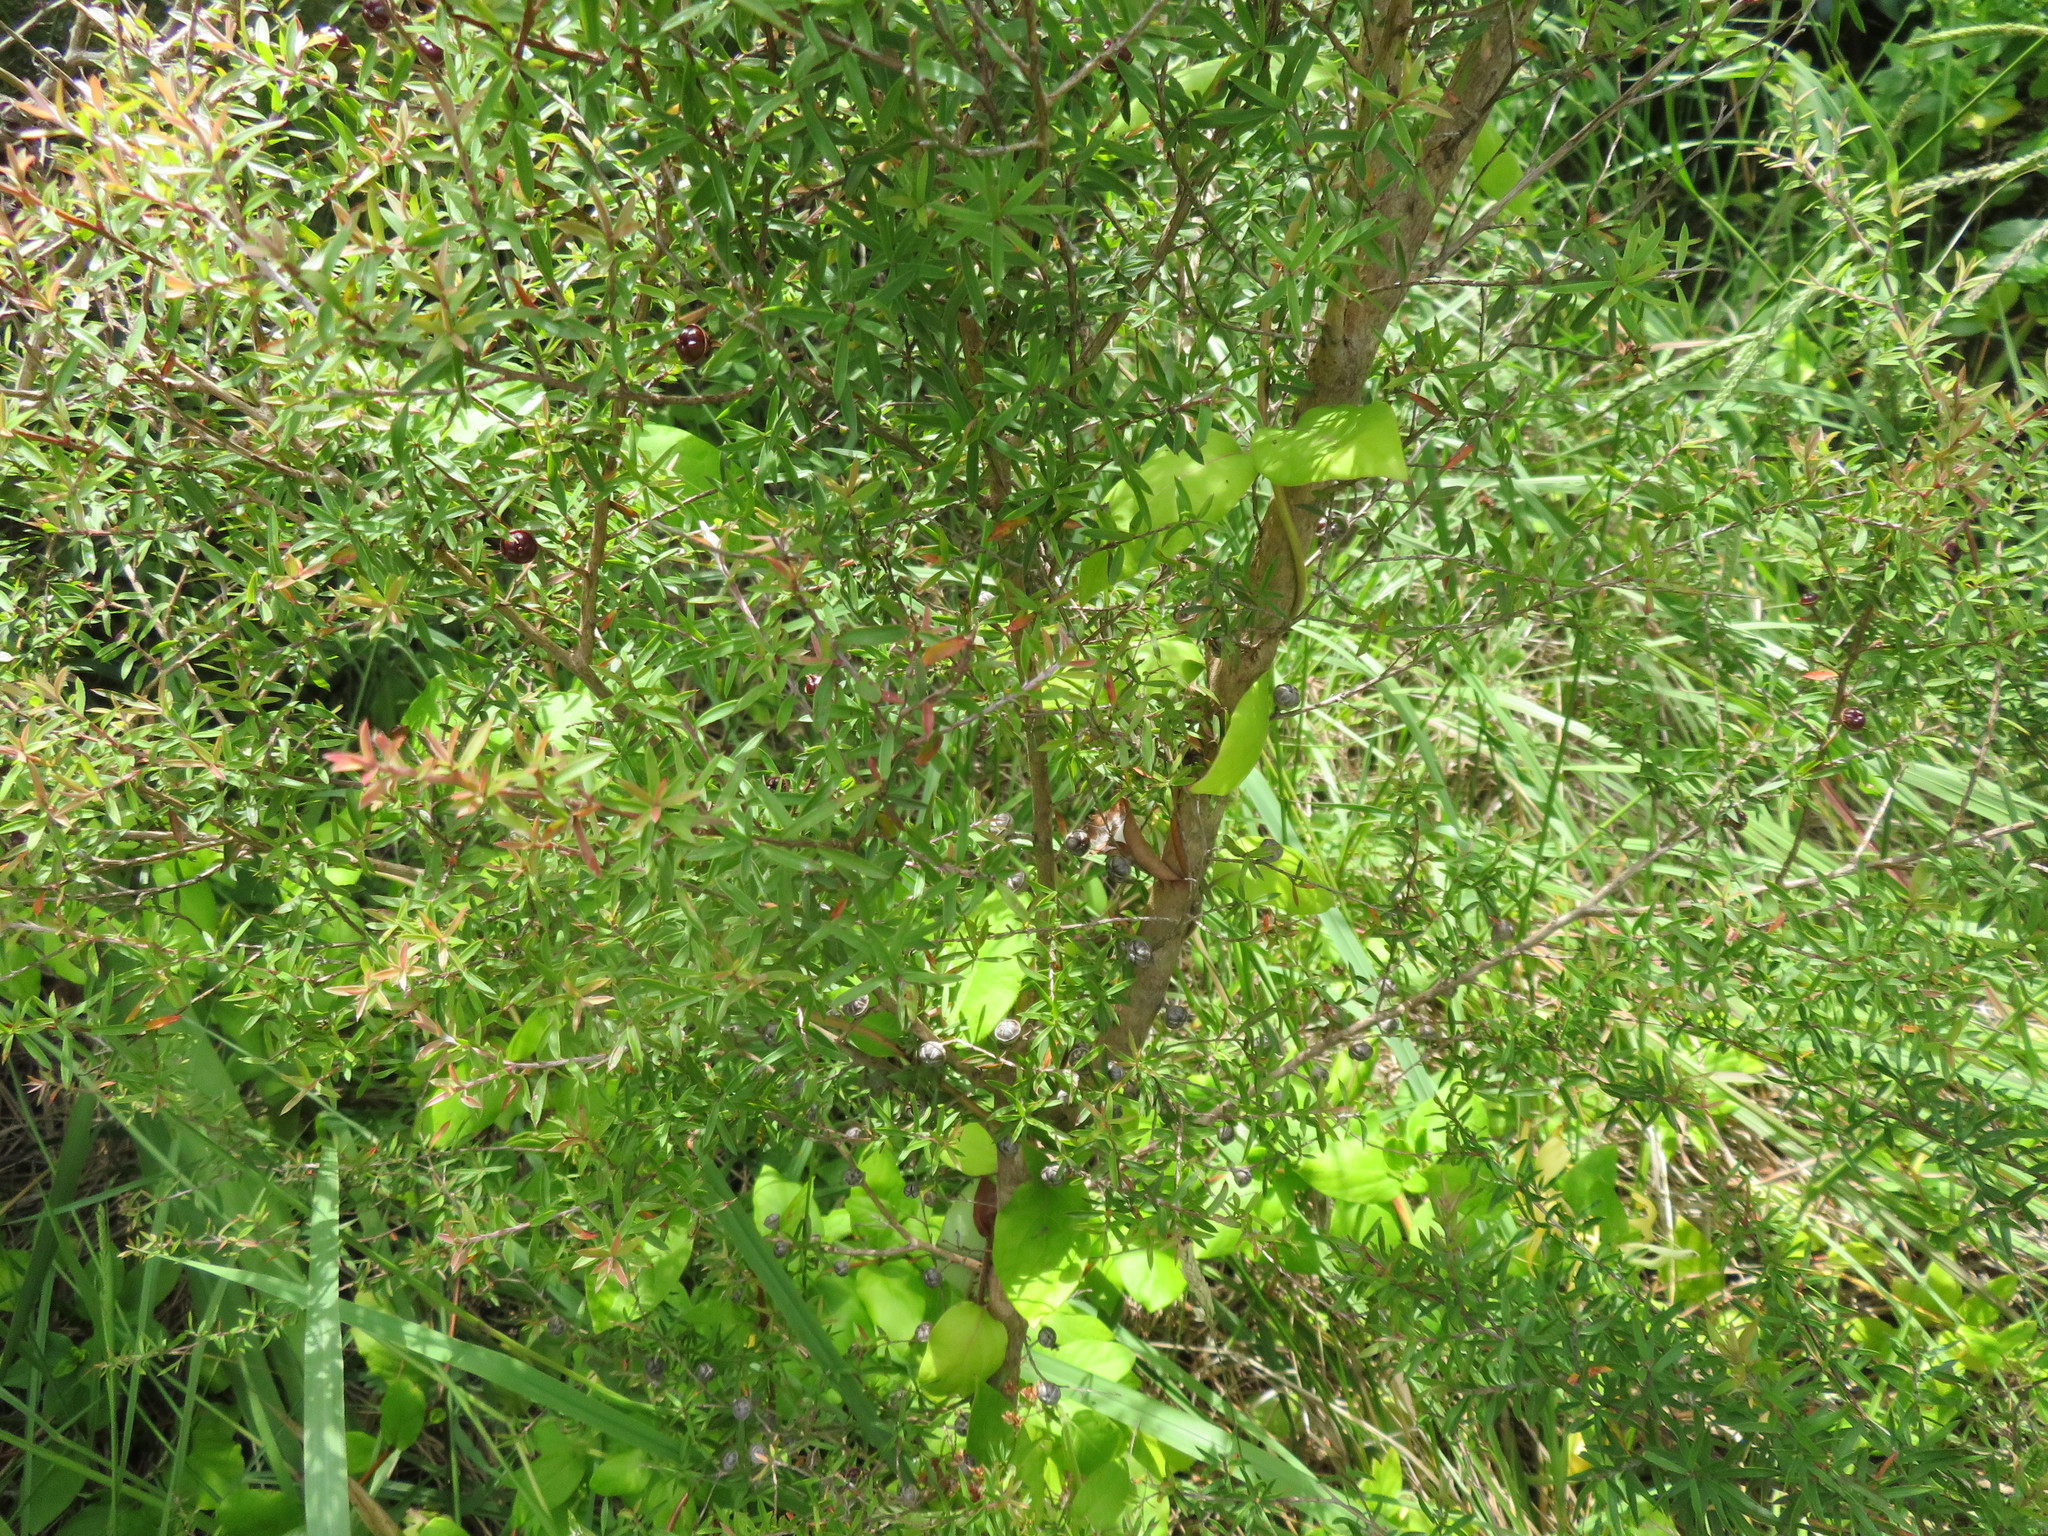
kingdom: Plantae
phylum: Tracheophyta
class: Magnoliopsida
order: Myrtales
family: Myrtaceae
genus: Leptospermum
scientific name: Leptospermum scoparium
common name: Broom tea-tree
